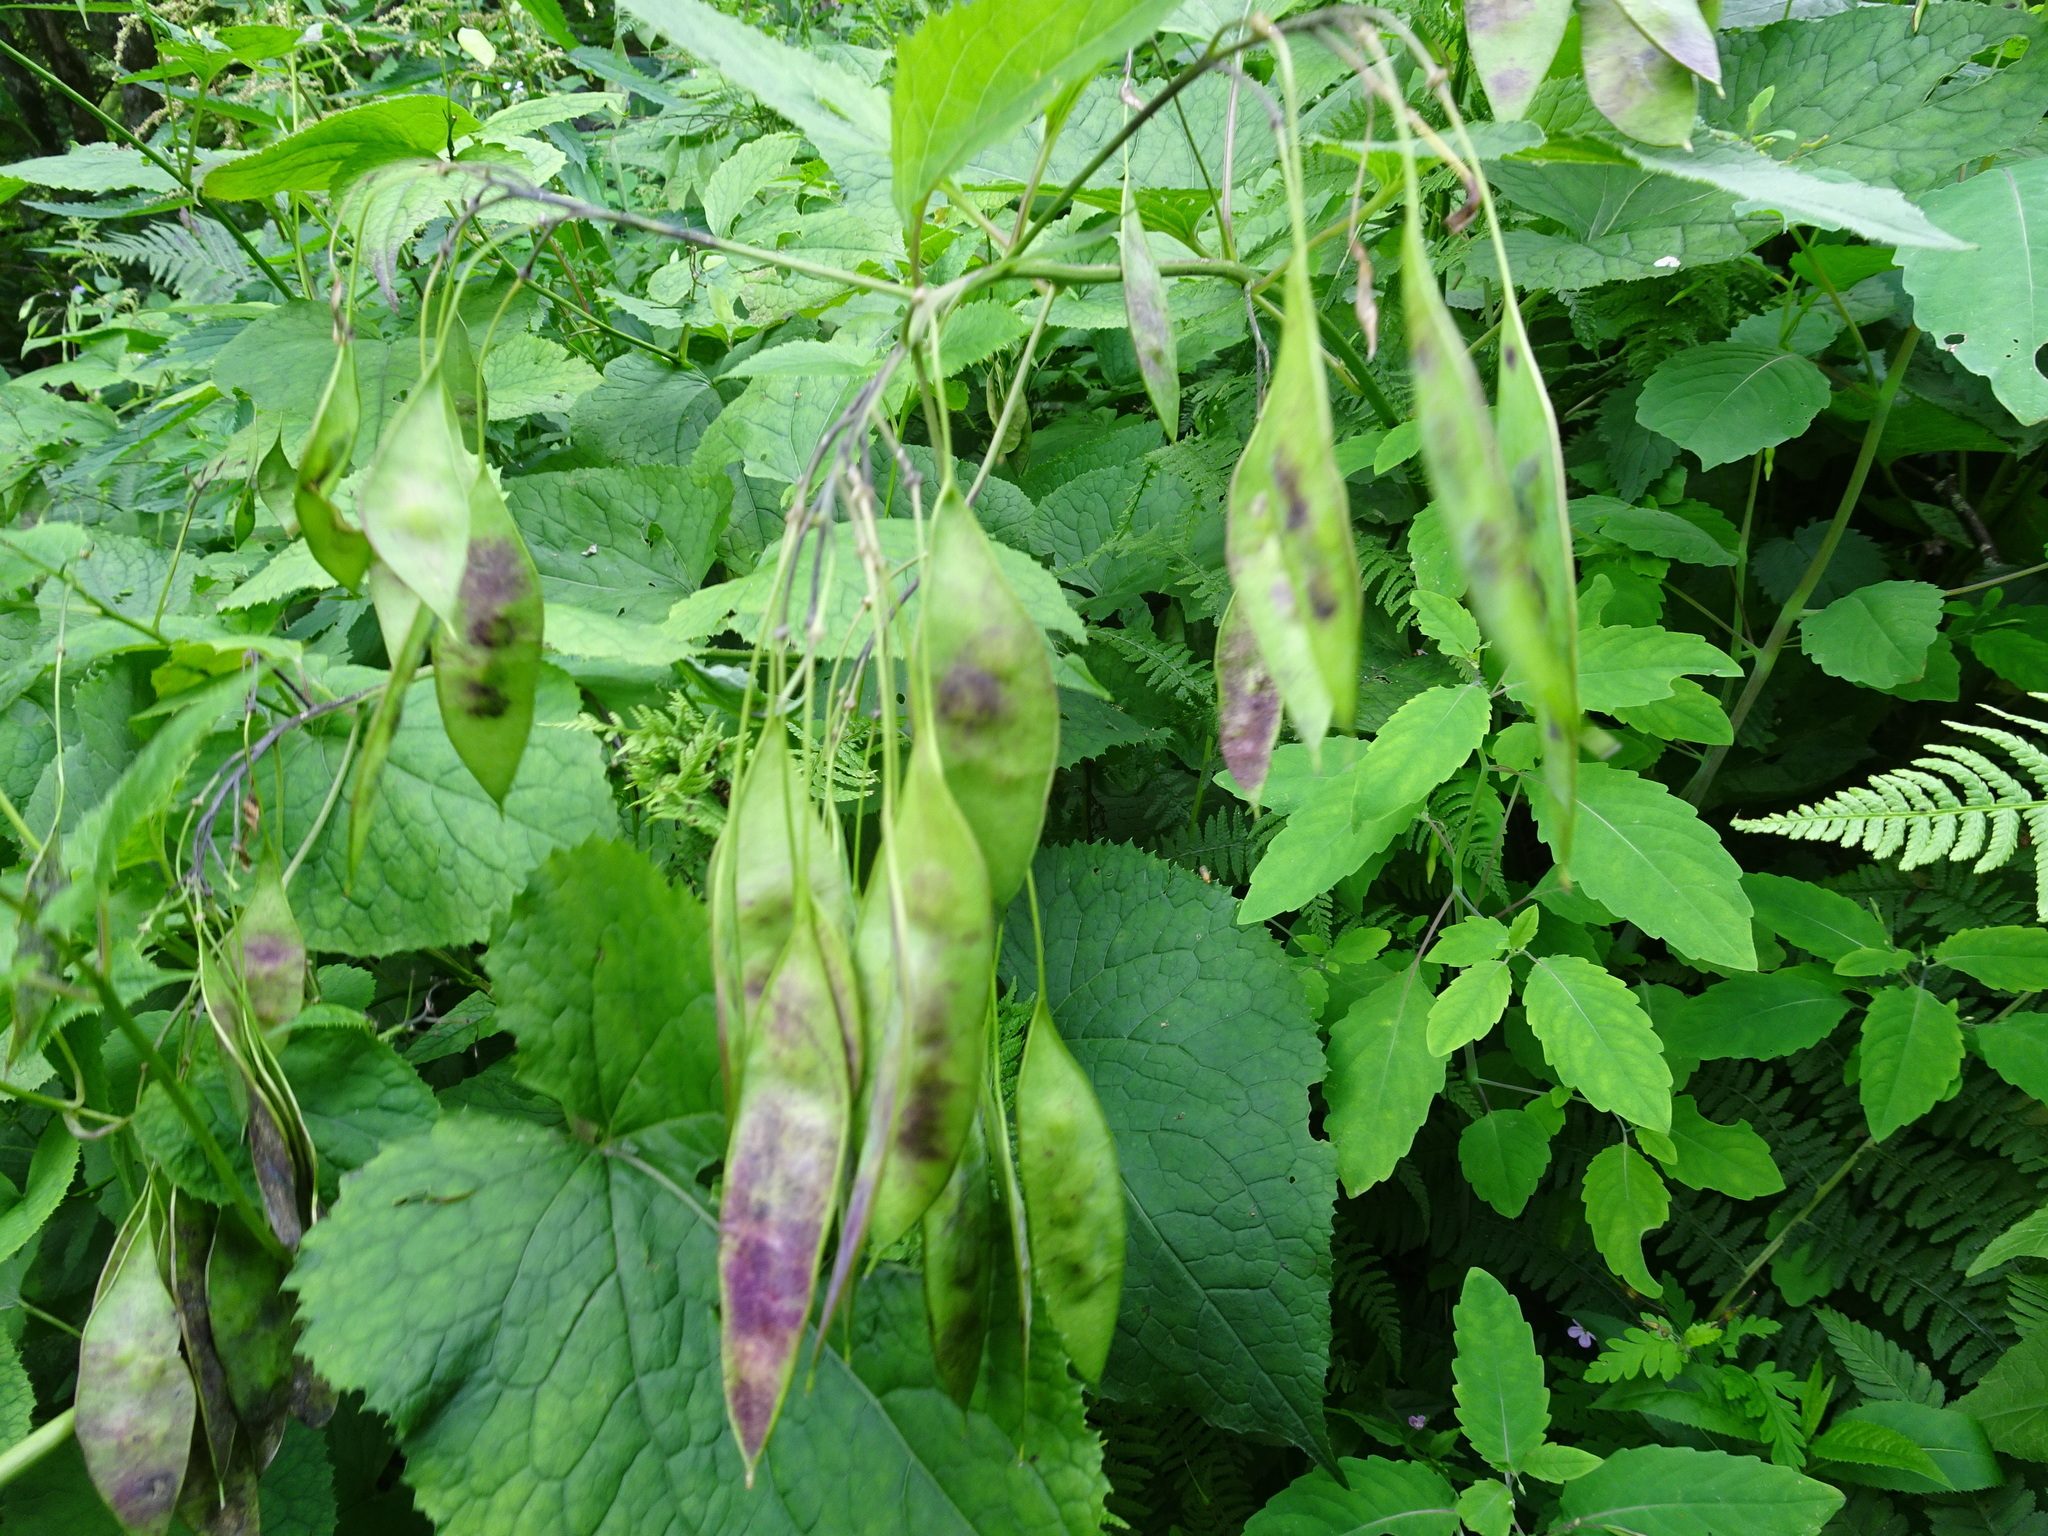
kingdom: Plantae
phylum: Tracheophyta
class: Magnoliopsida
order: Brassicales
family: Brassicaceae
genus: Lunaria
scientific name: Lunaria rediviva
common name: Perennial honesty
